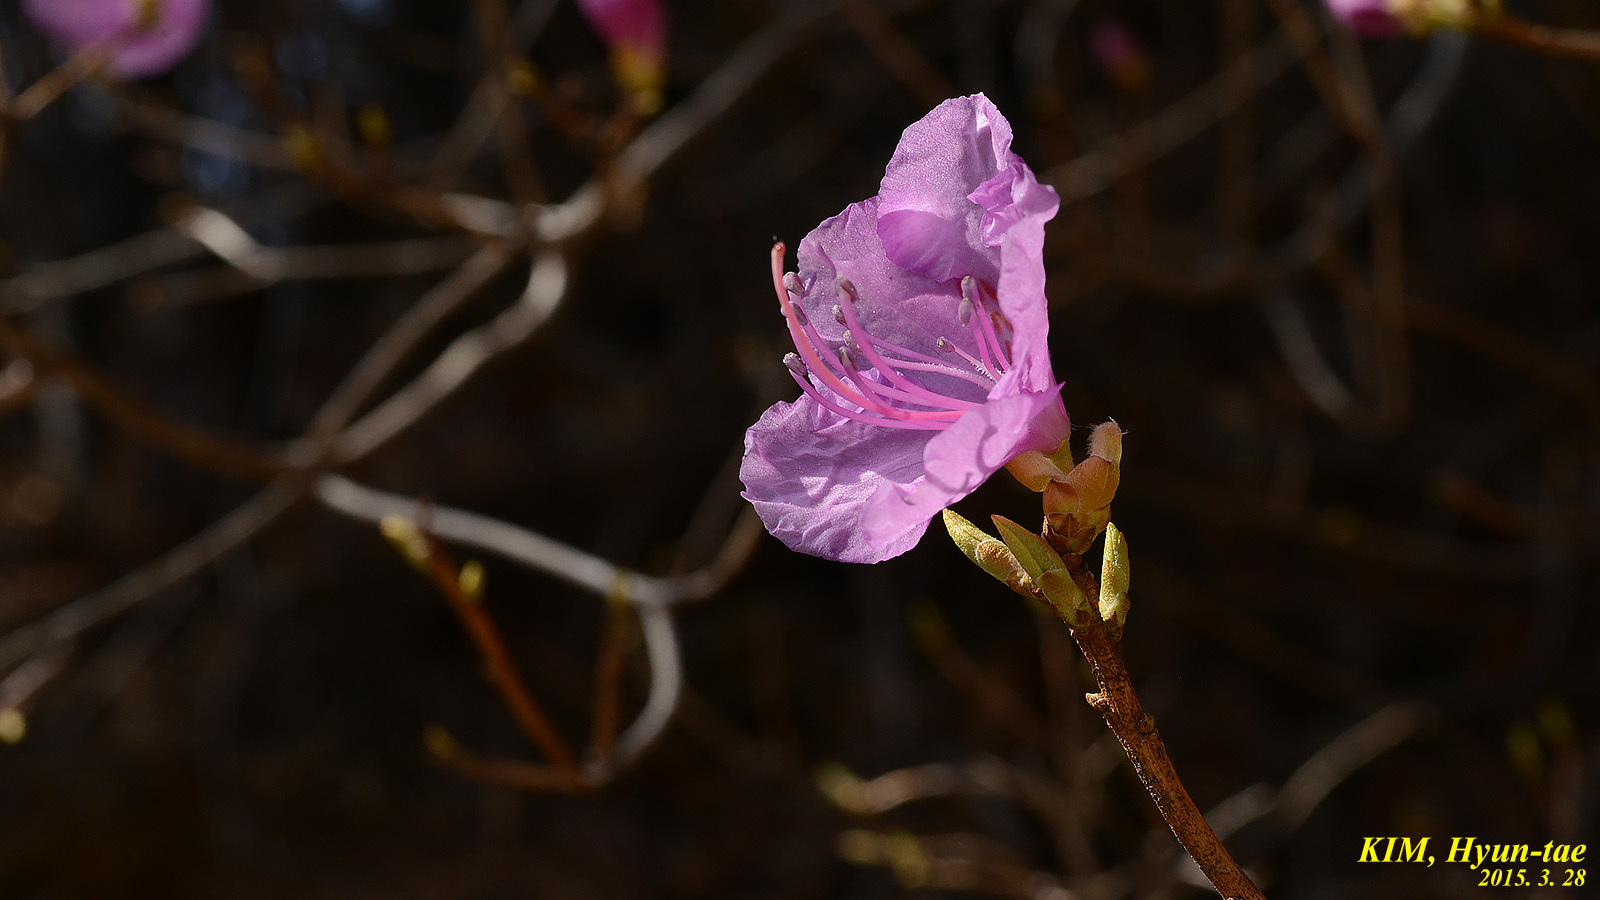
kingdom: Plantae
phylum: Tracheophyta
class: Magnoliopsida
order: Ericales
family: Ericaceae
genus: Rhododendron
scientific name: Rhododendron mucronulatum
